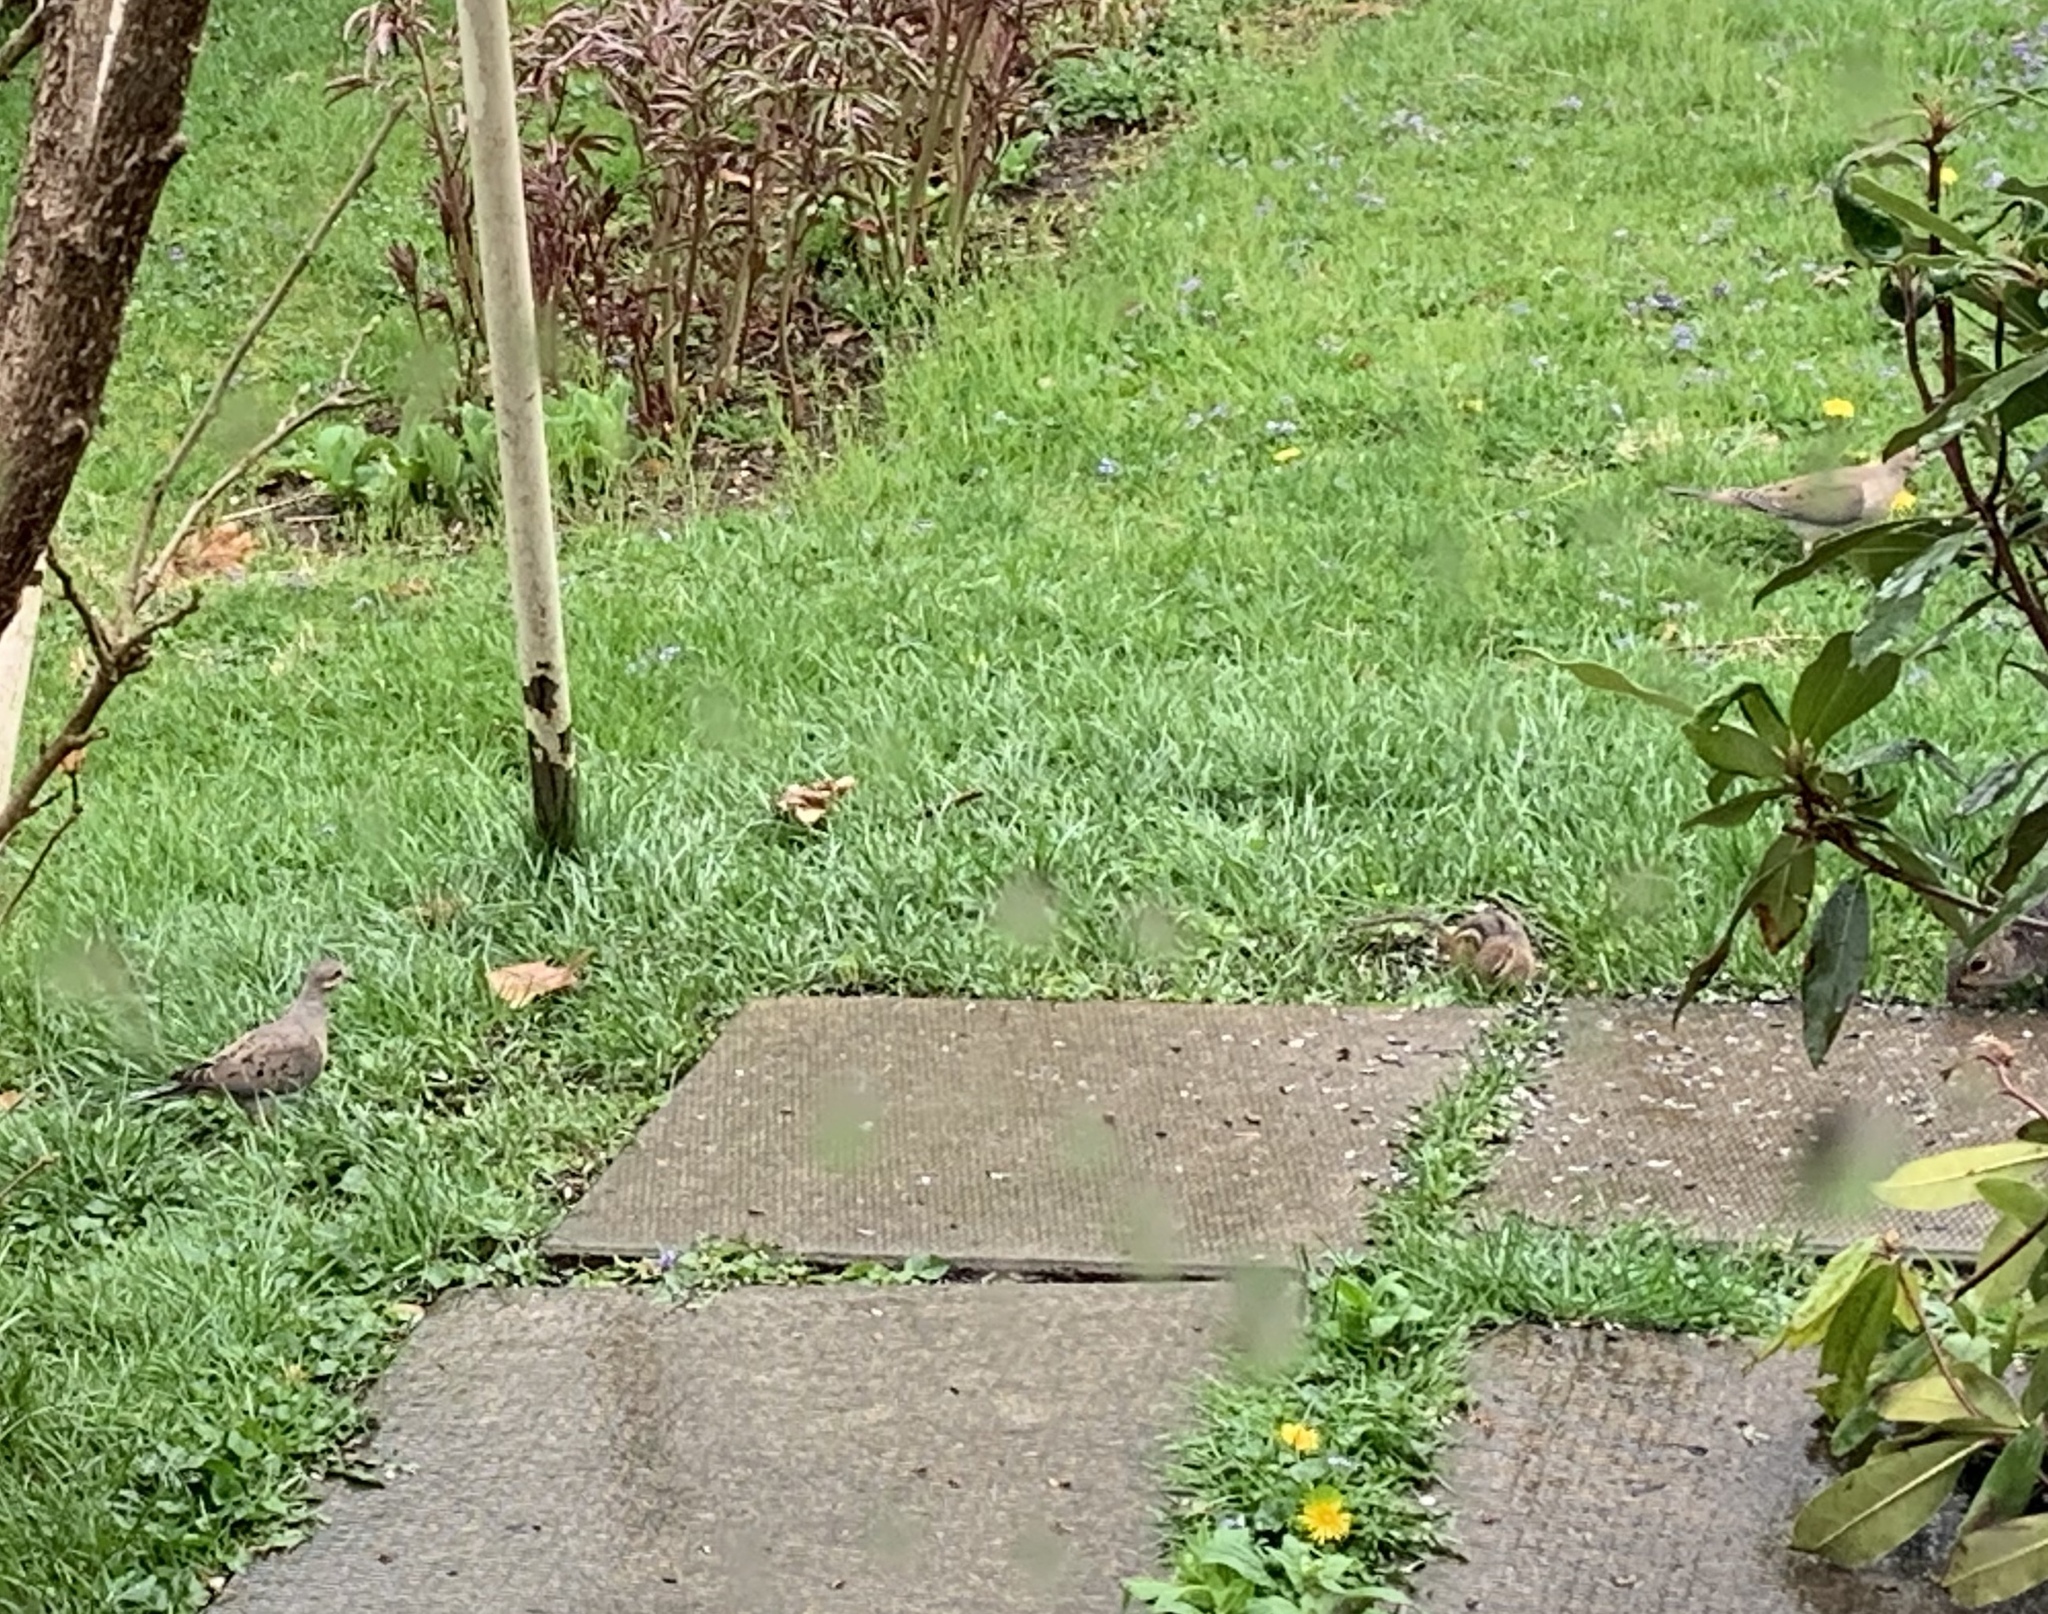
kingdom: Animalia
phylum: Chordata
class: Aves
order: Columbiformes
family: Columbidae
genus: Zenaida
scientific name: Zenaida macroura
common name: Mourning dove
